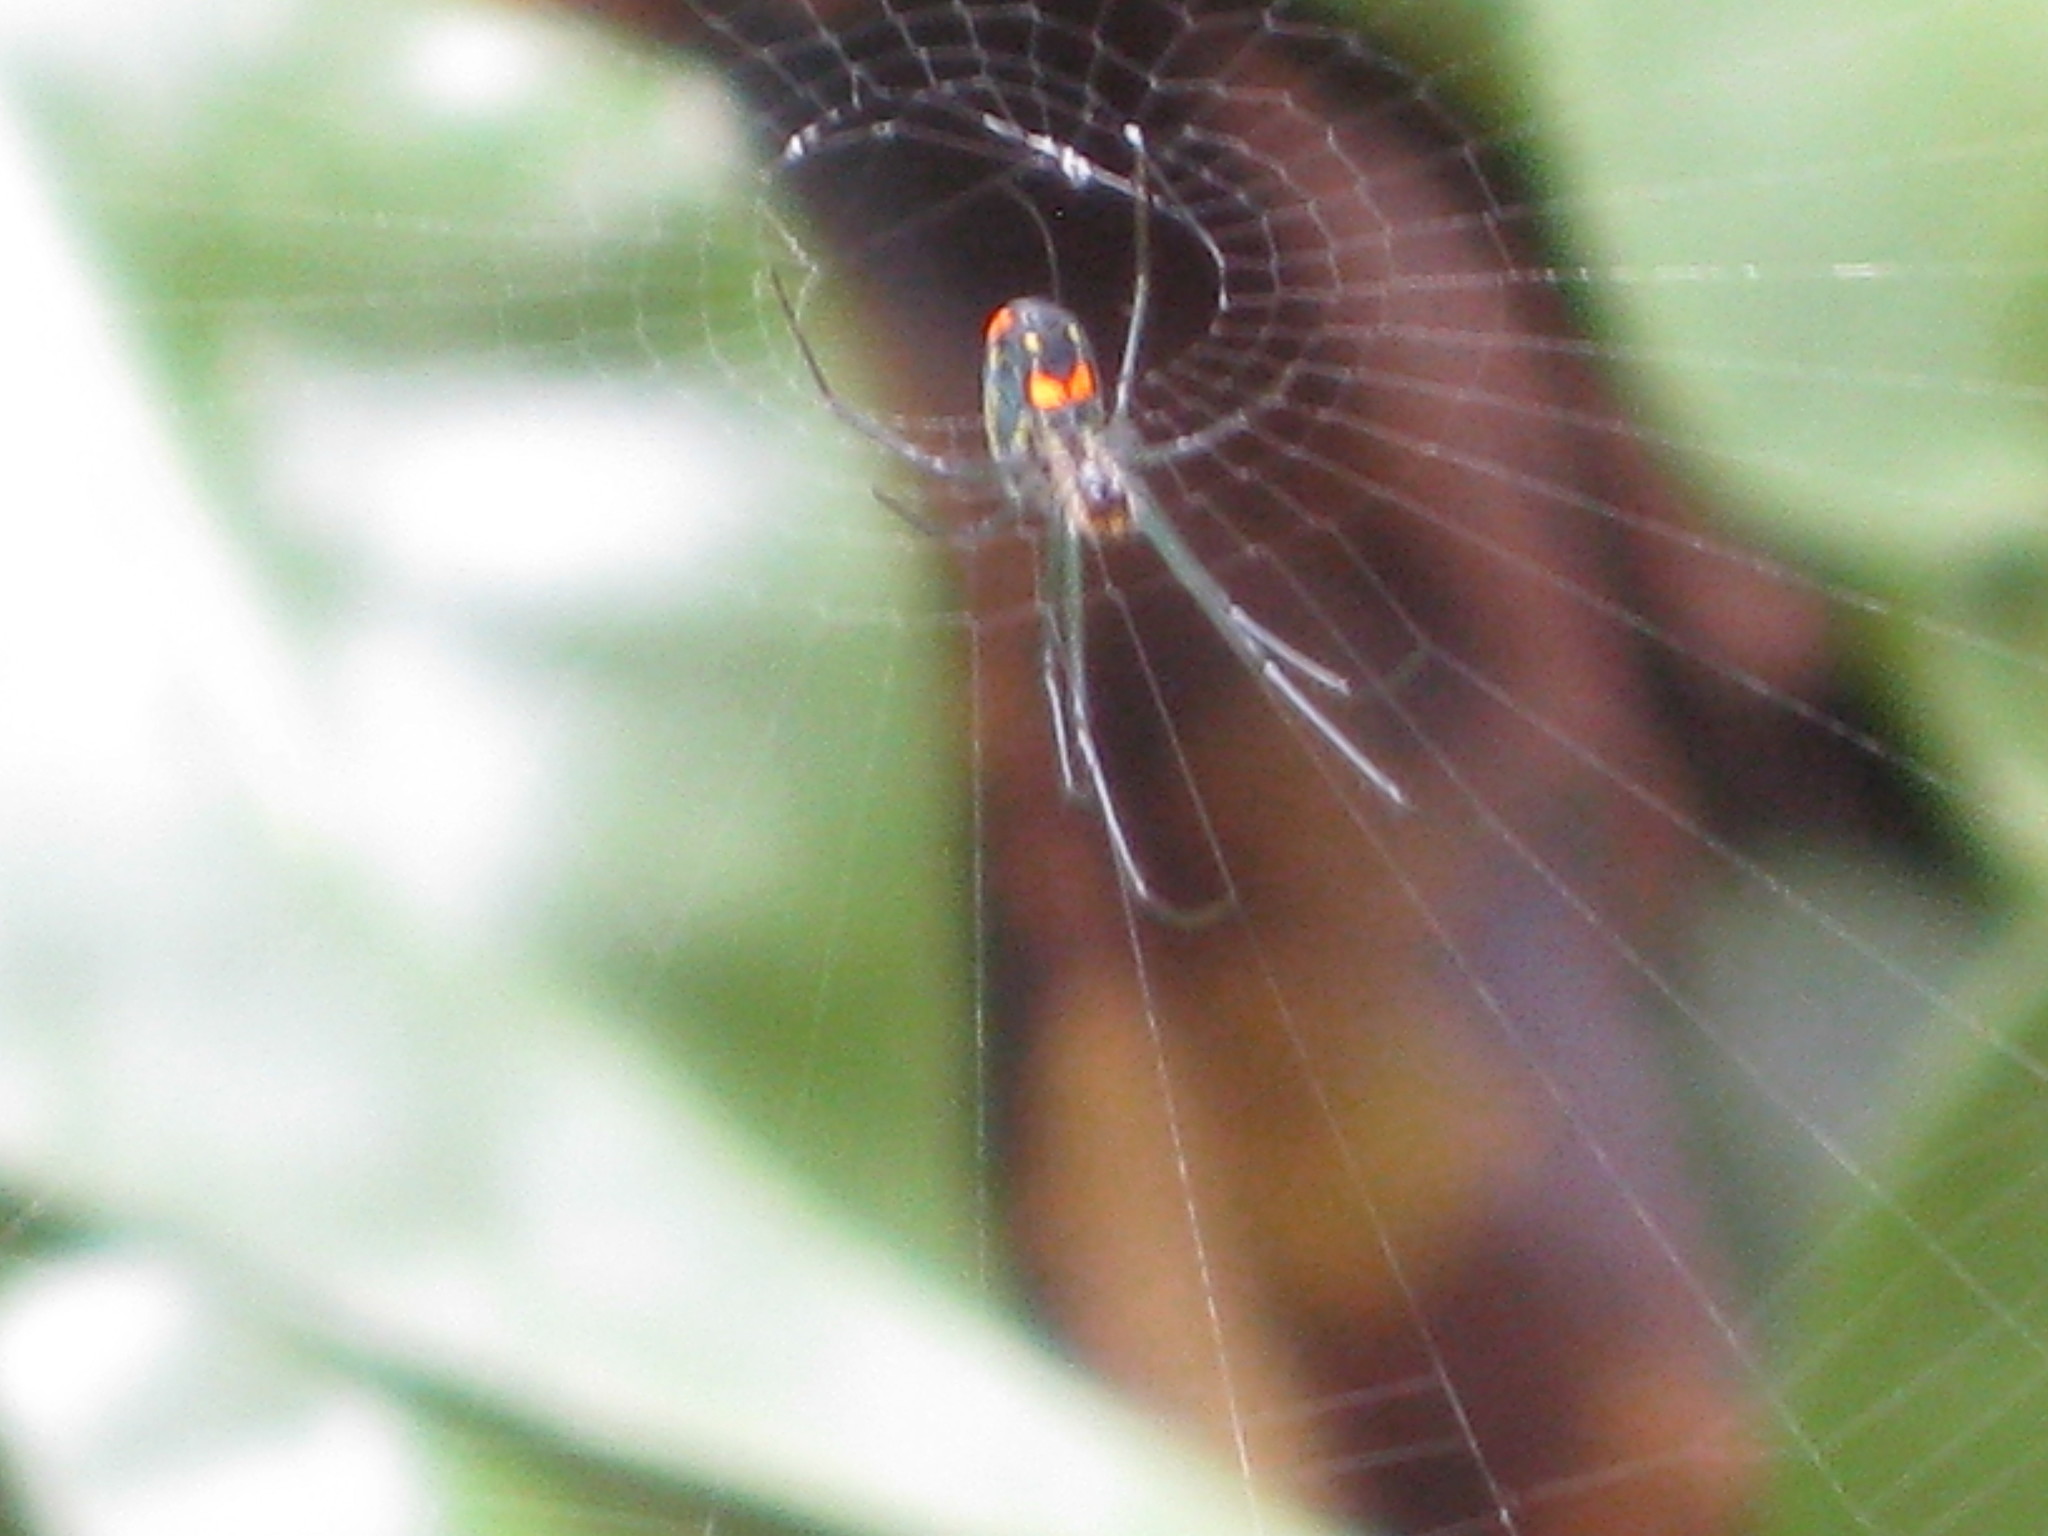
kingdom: Animalia
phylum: Arthropoda
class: Arachnida
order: Araneae
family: Tetragnathidae
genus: Leucauge
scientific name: Leucauge argyrobapta
